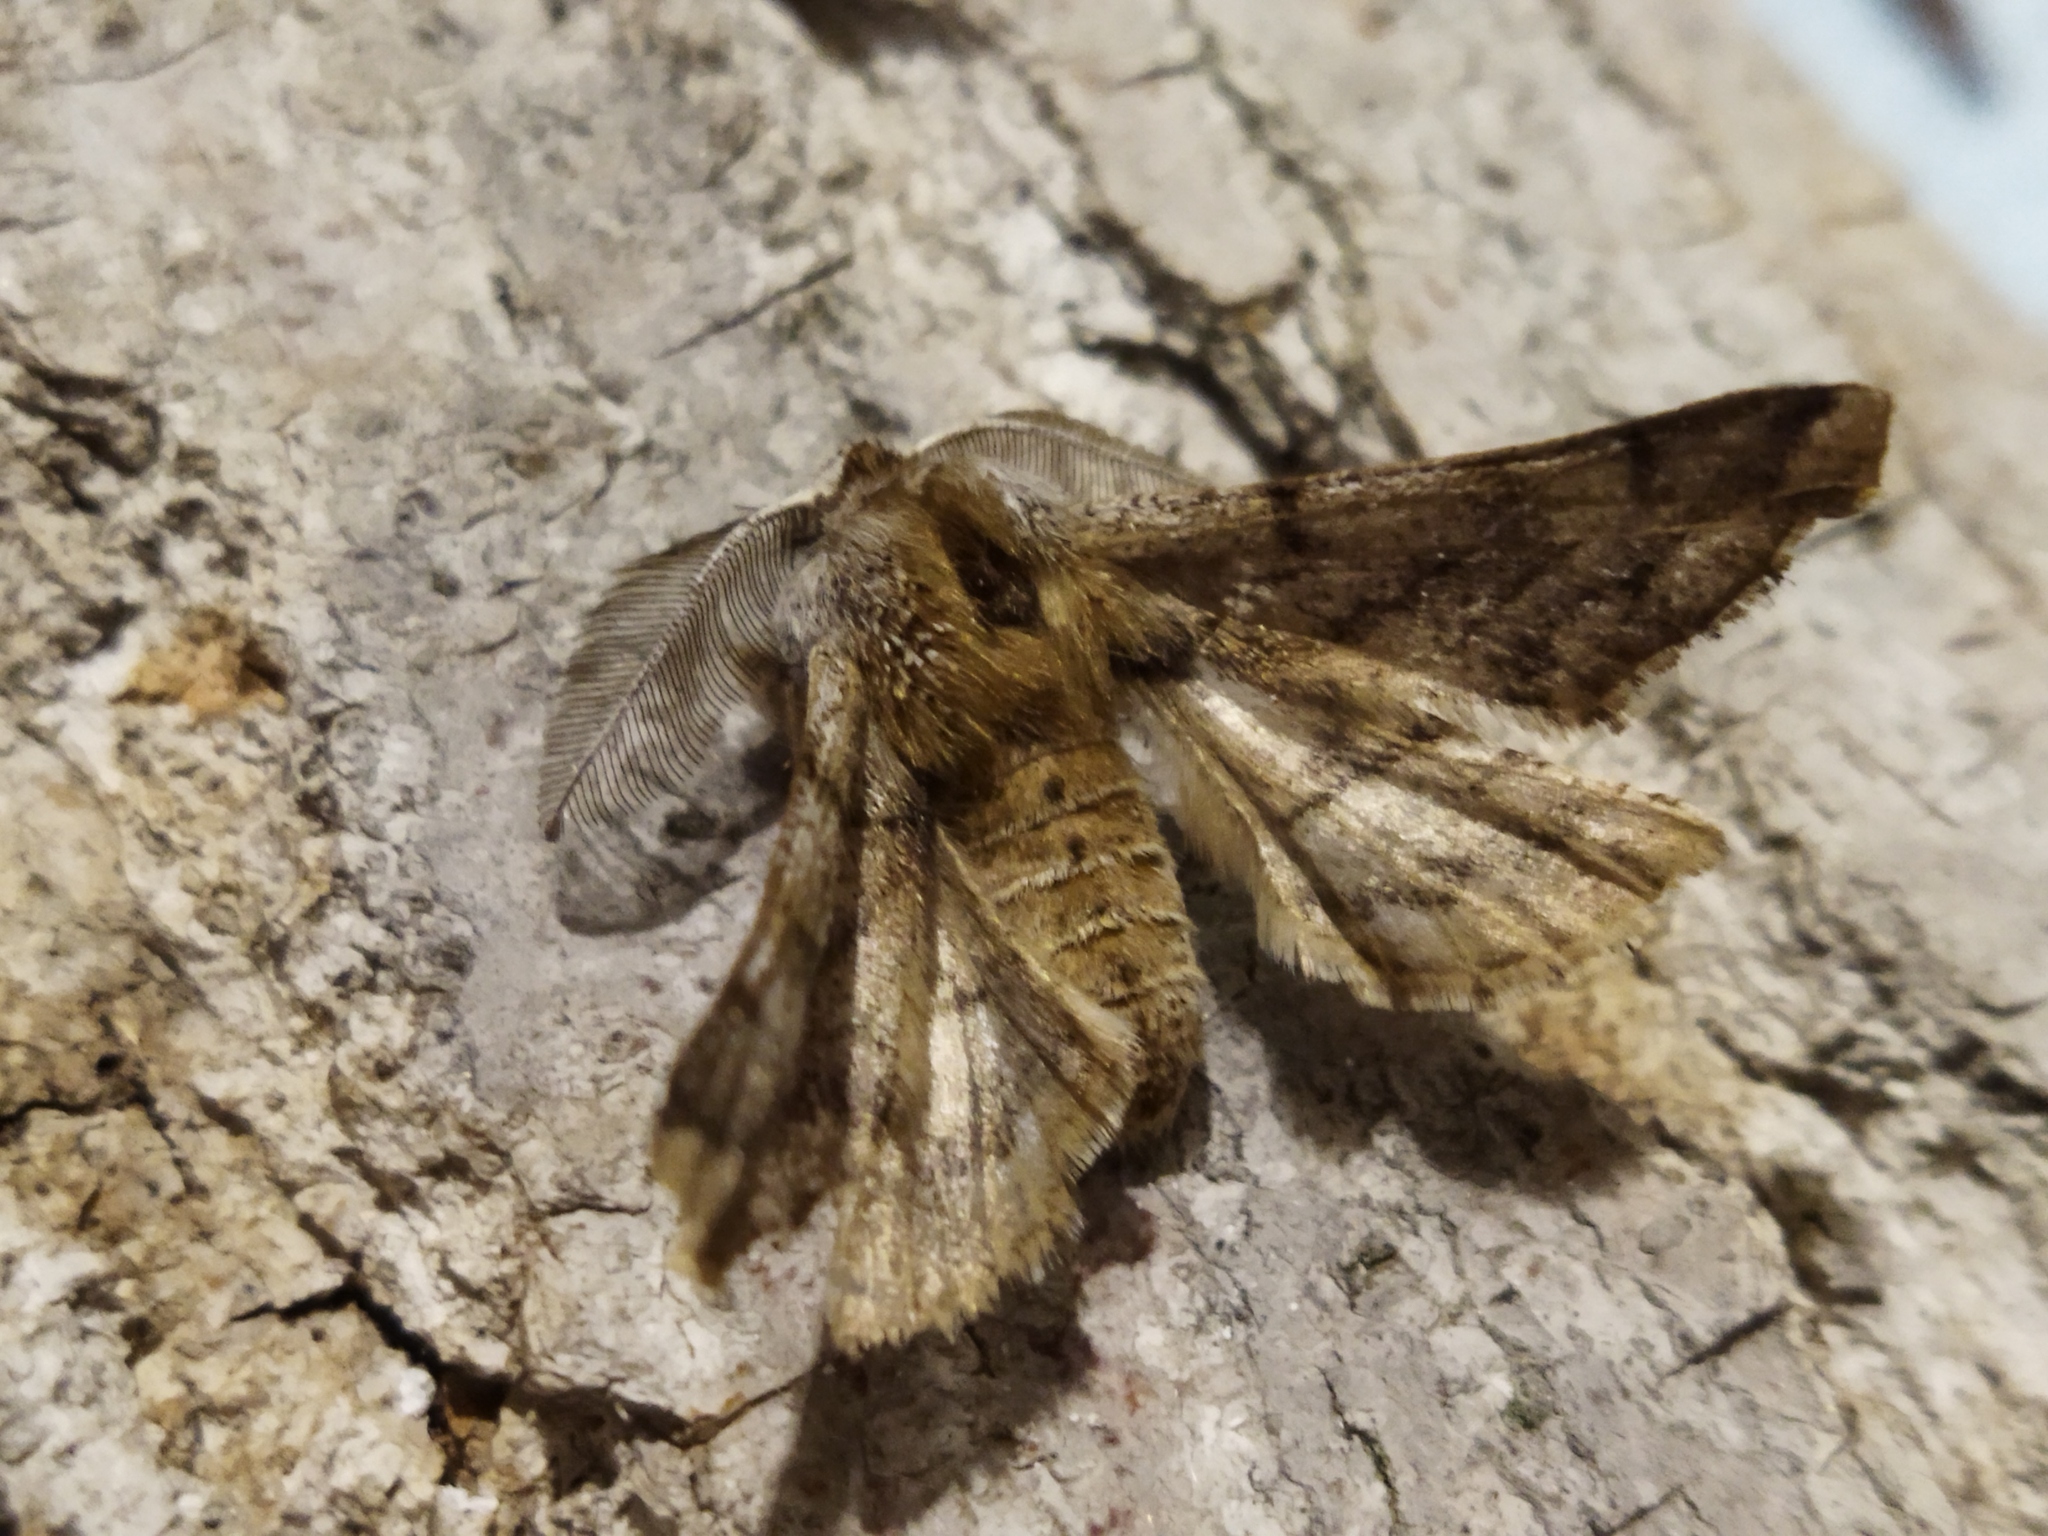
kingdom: Animalia
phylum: Arthropoda
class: Insecta
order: Lepidoptera
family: Geometridae
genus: Apochima
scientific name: Apochima flabellaria
